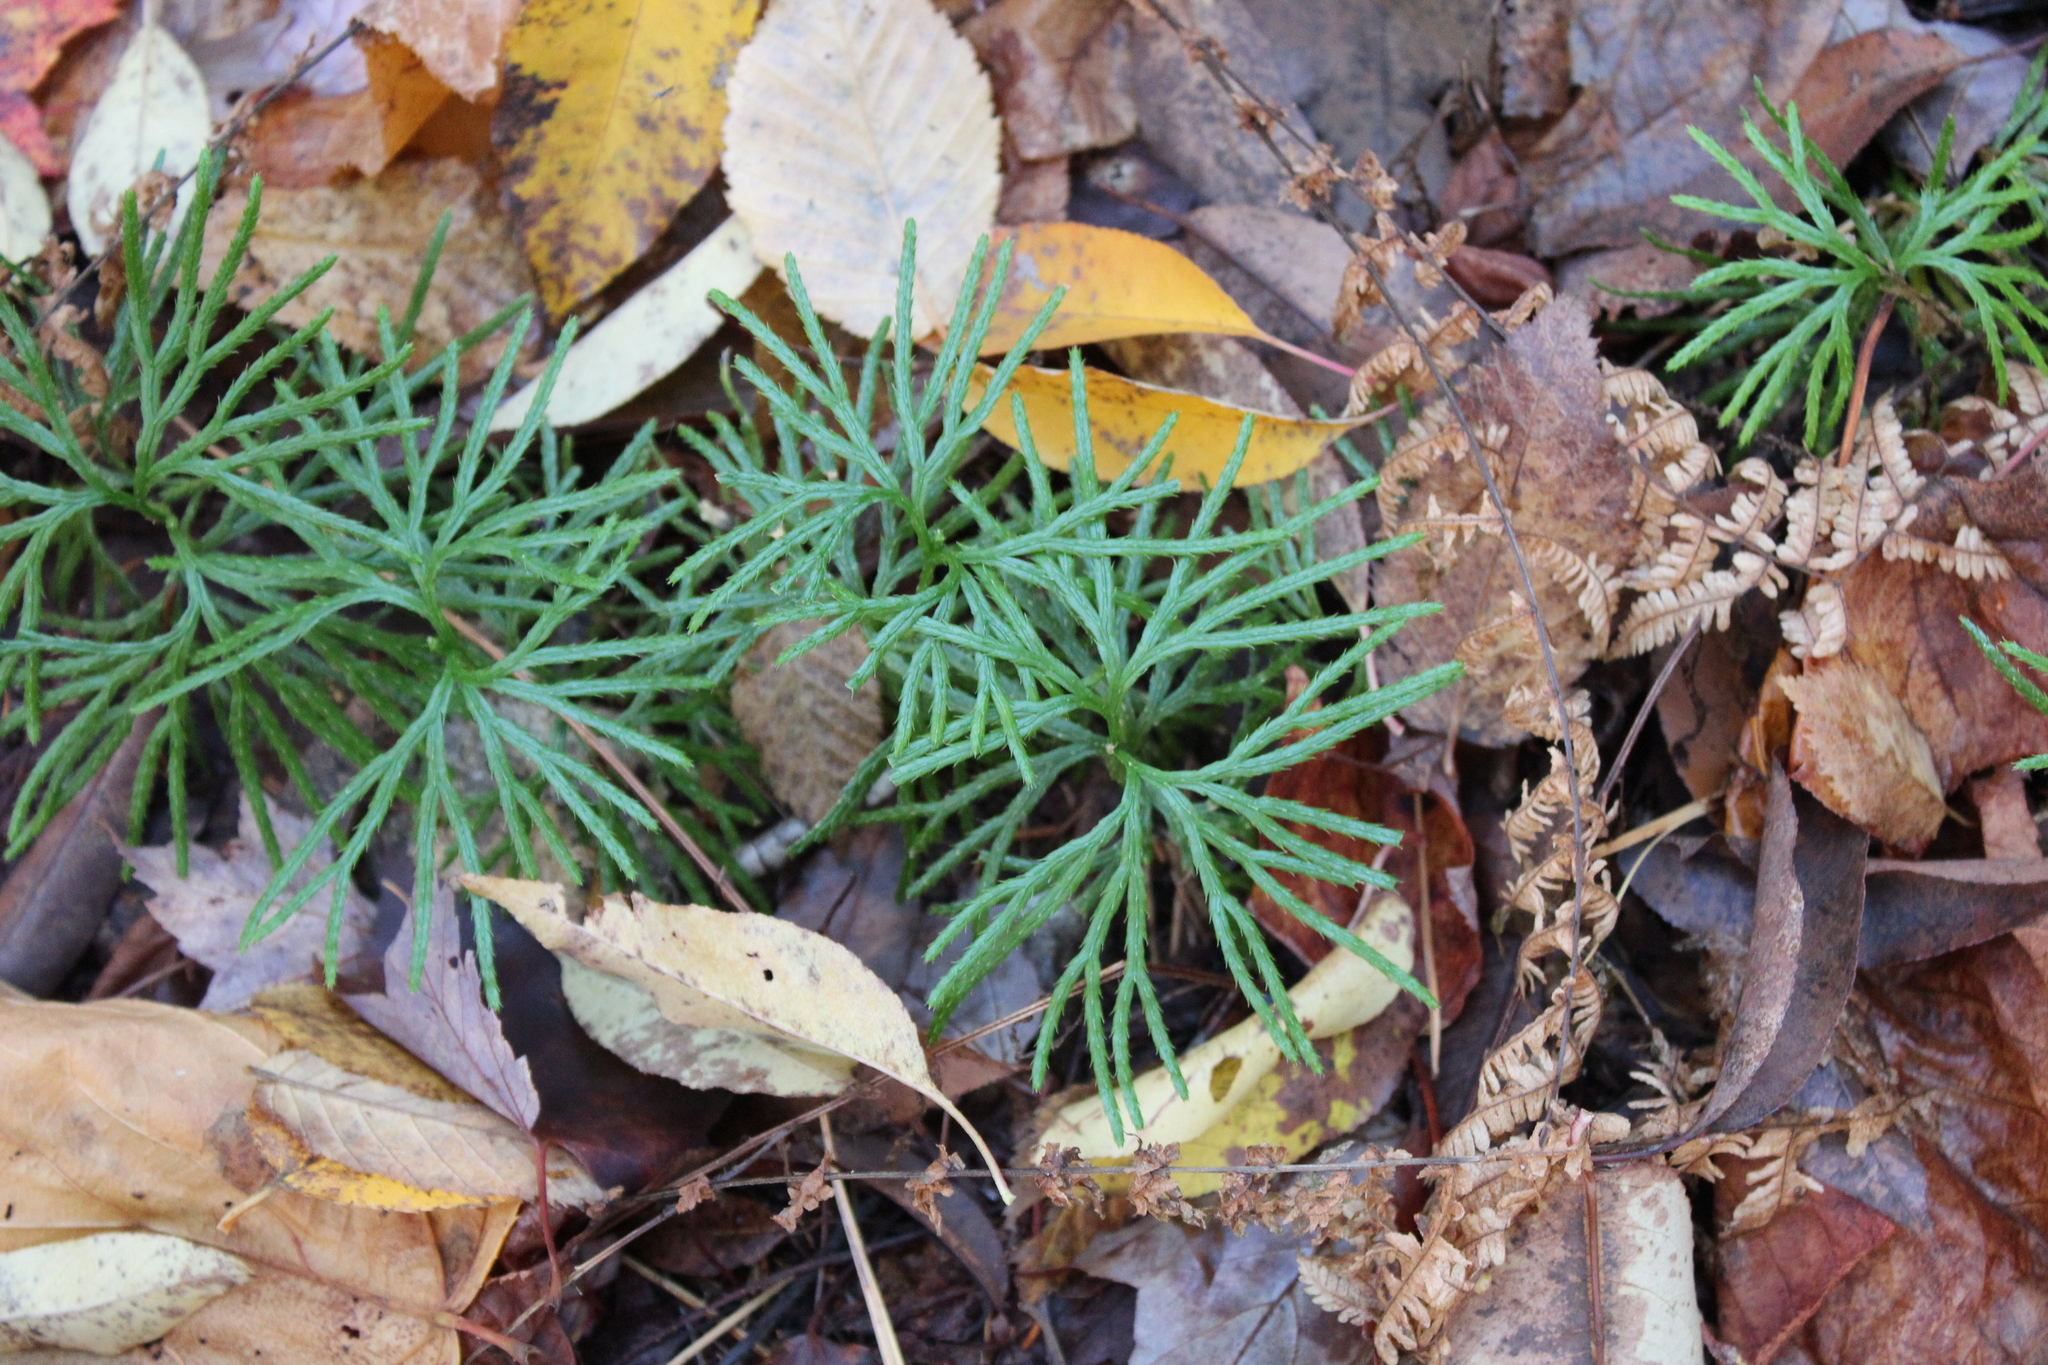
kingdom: Plantae
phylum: Tracheophyta
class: Lycopodiopsida
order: Lycopodiales
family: Lycopodiaceae
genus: Diphasiastrum
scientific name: Diphasiastrum digitatum
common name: Southern running-pine
